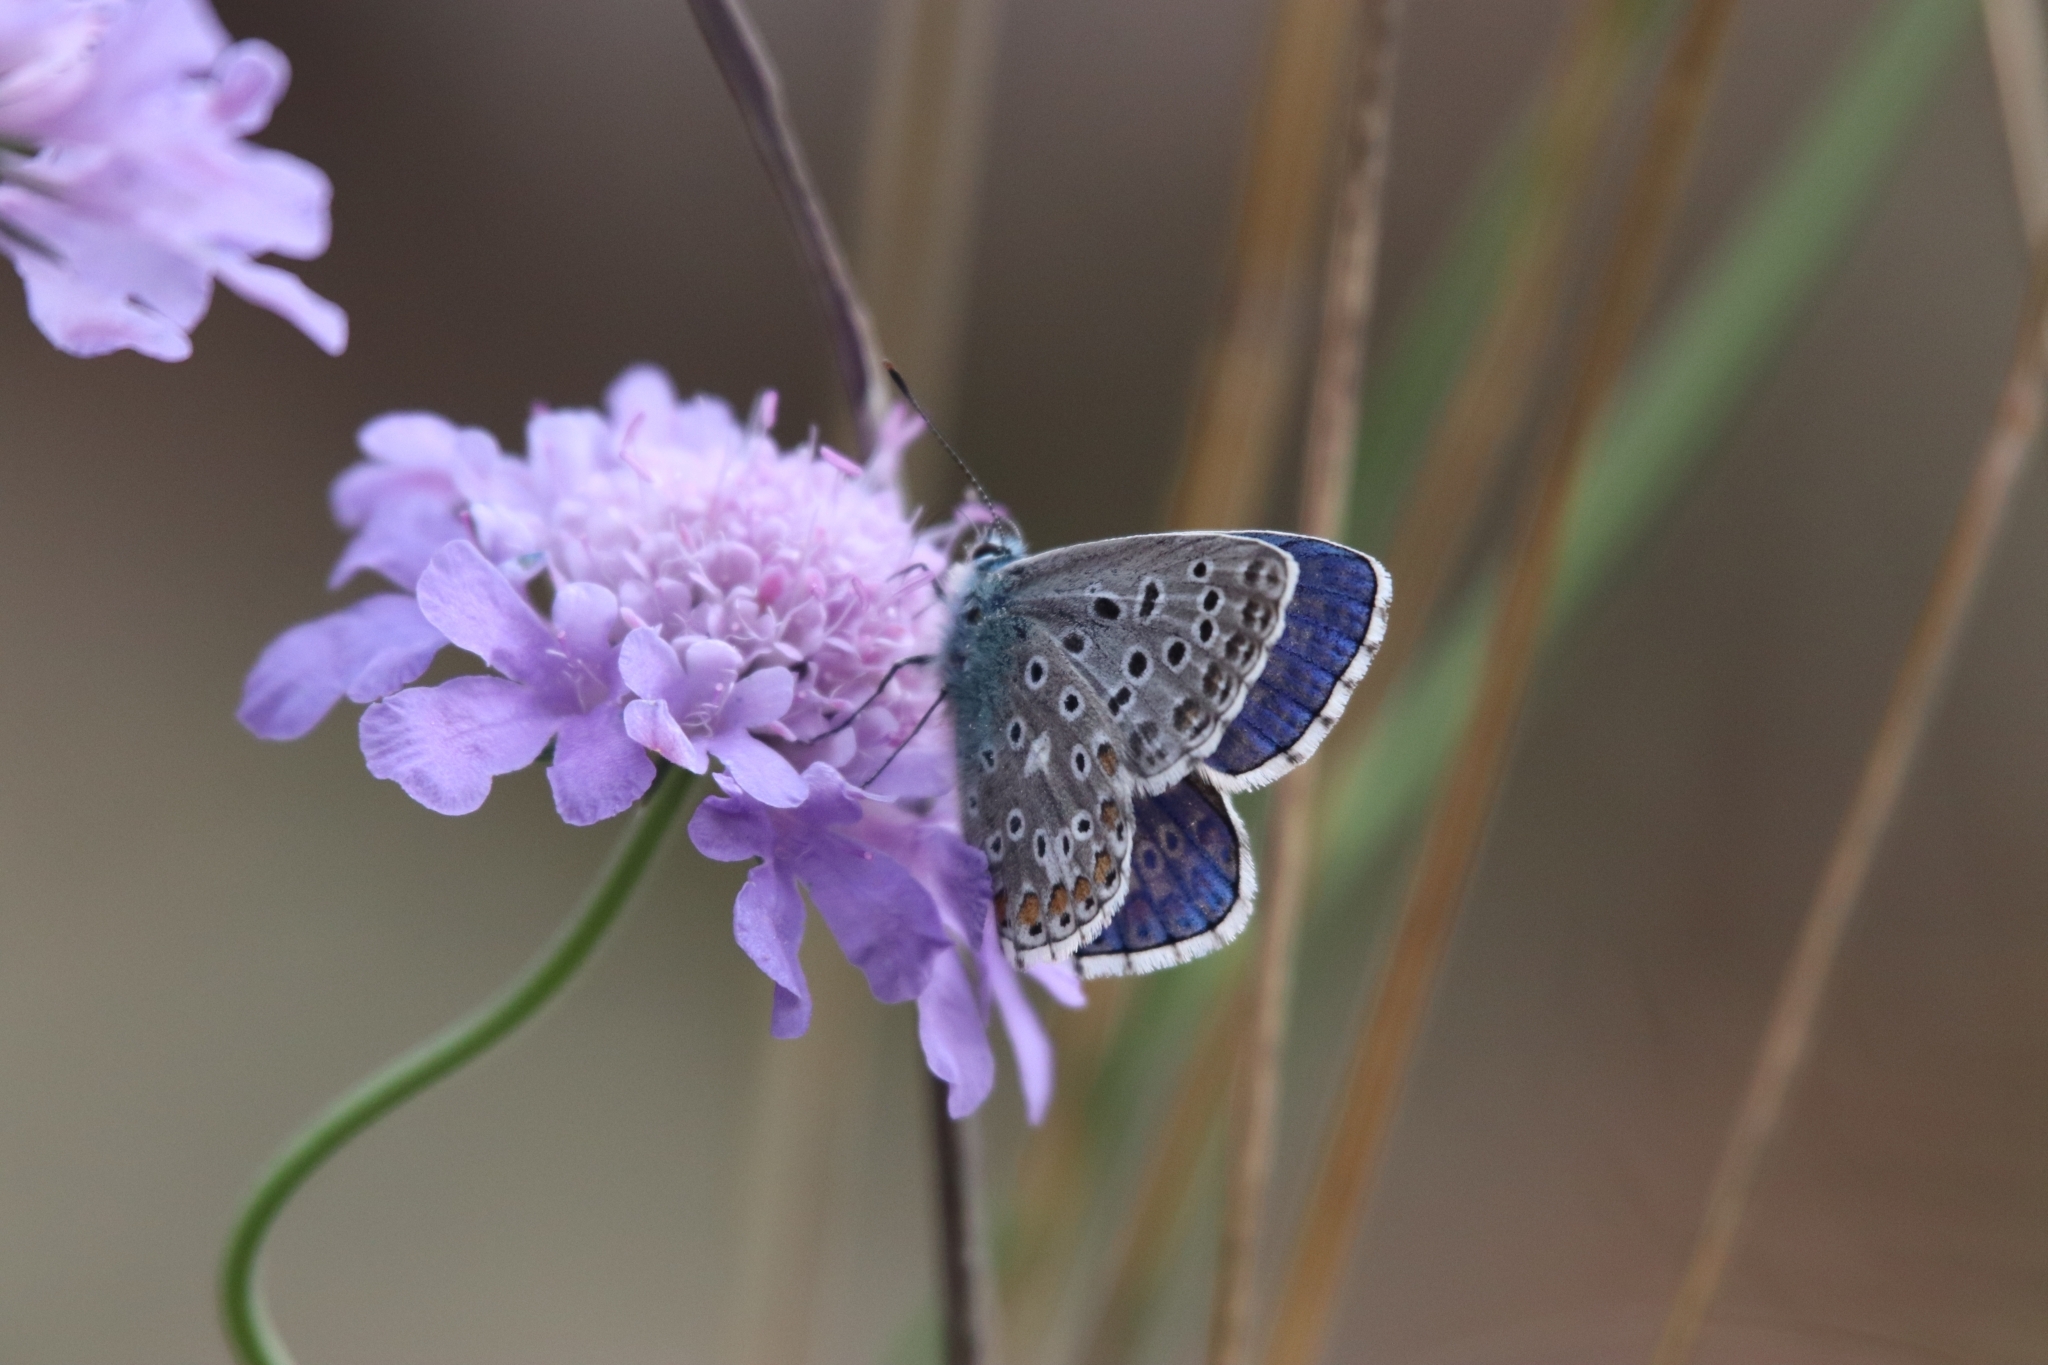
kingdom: Animalia
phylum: Arthropoda
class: Insecta
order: Lepidoptera
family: Lycaenidae
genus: Lysandra
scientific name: Lysandra bellargus
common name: Adonis blue
